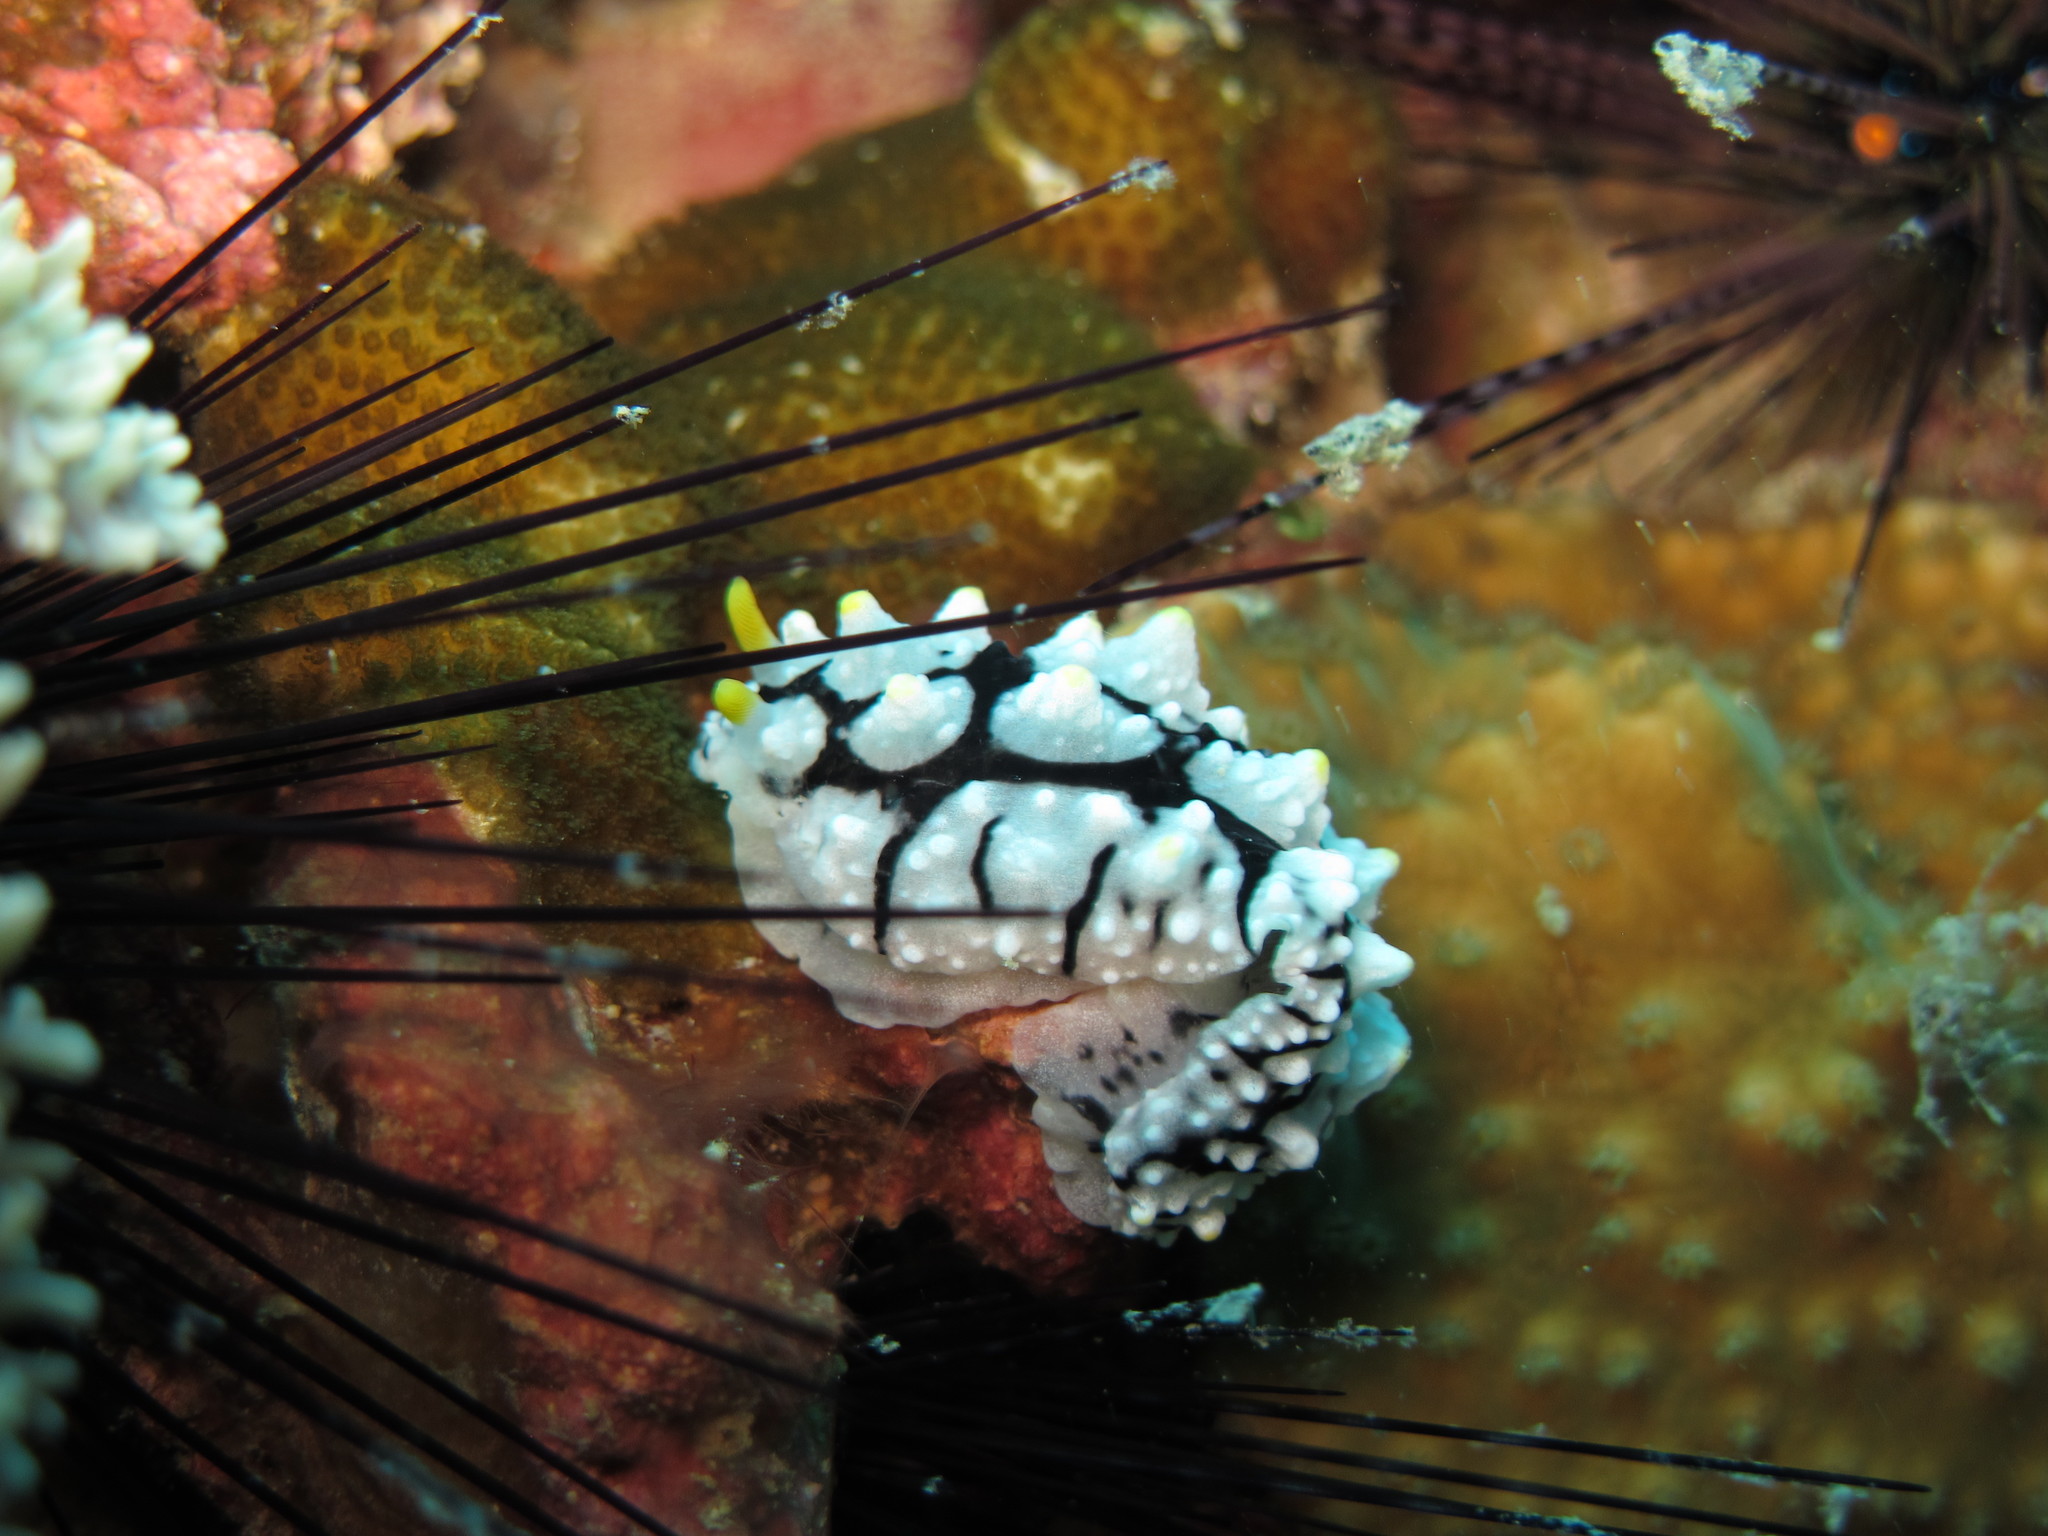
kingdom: Animalia
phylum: Mollusca
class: Gastropoda
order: Nudibranchia
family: Phyllidiidae
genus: Phyllidia
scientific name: Phyllidia elegans
